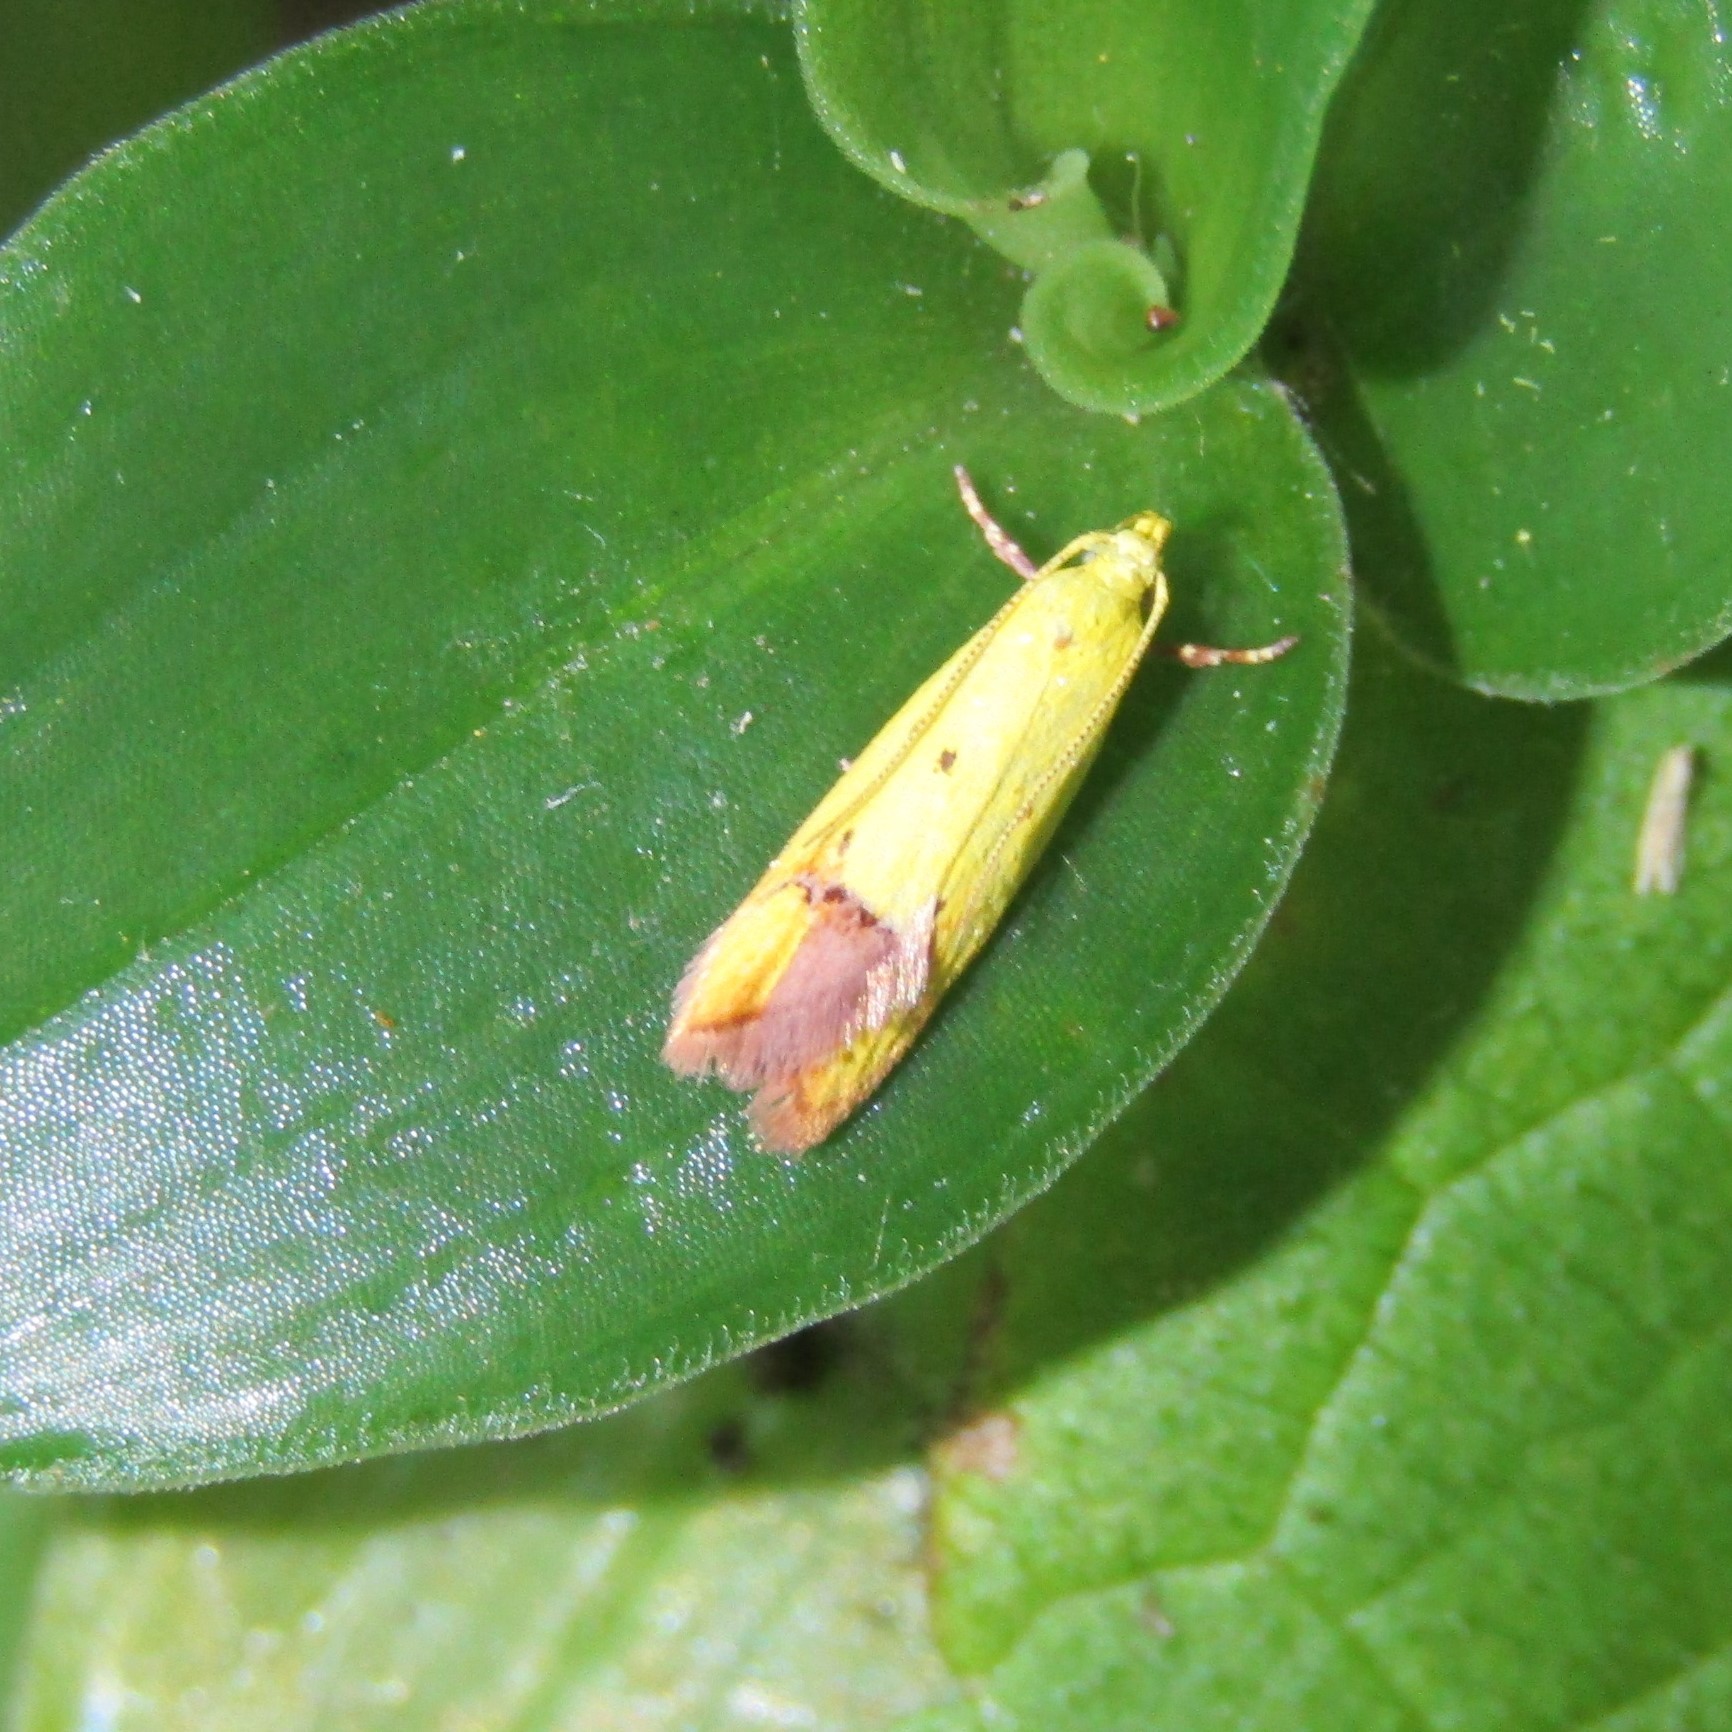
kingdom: Animalia
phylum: Arthropoda
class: Insecta
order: Lepidoptera
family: Oecophoridae
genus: Gymnobathra
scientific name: Gymnobathra flavidella
